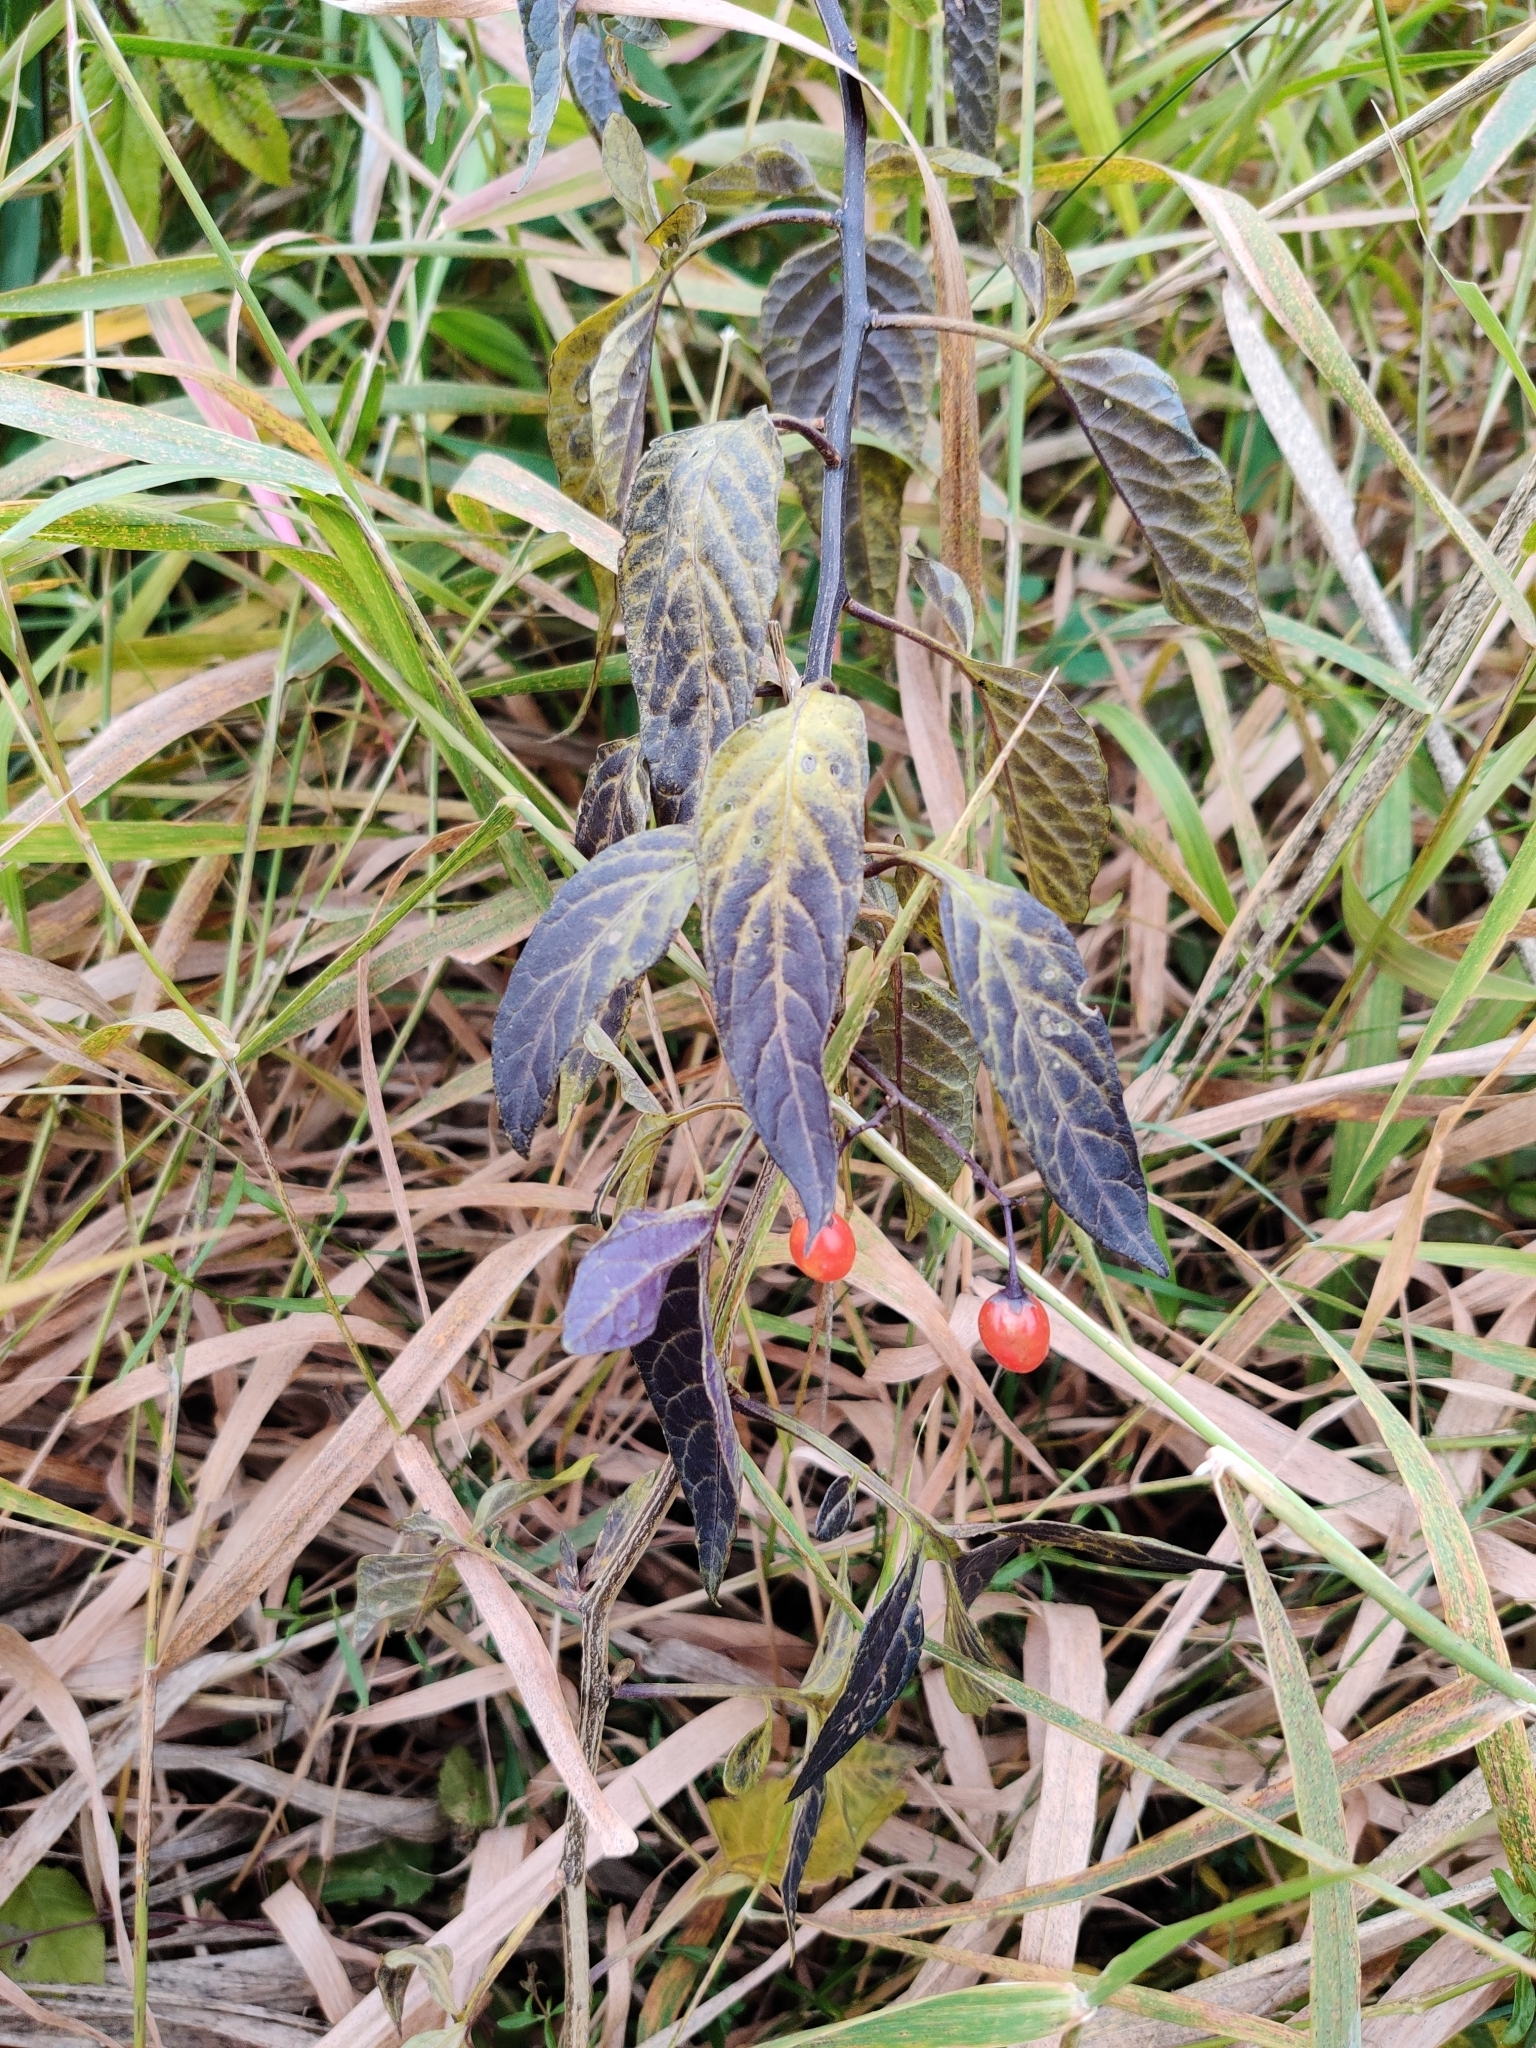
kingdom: Plantae
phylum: Tracheophyta
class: Magnoliopsida
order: Solanales
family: Solanaceae
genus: Solanum
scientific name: Solanum dulcamara
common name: Climbing nightshade
